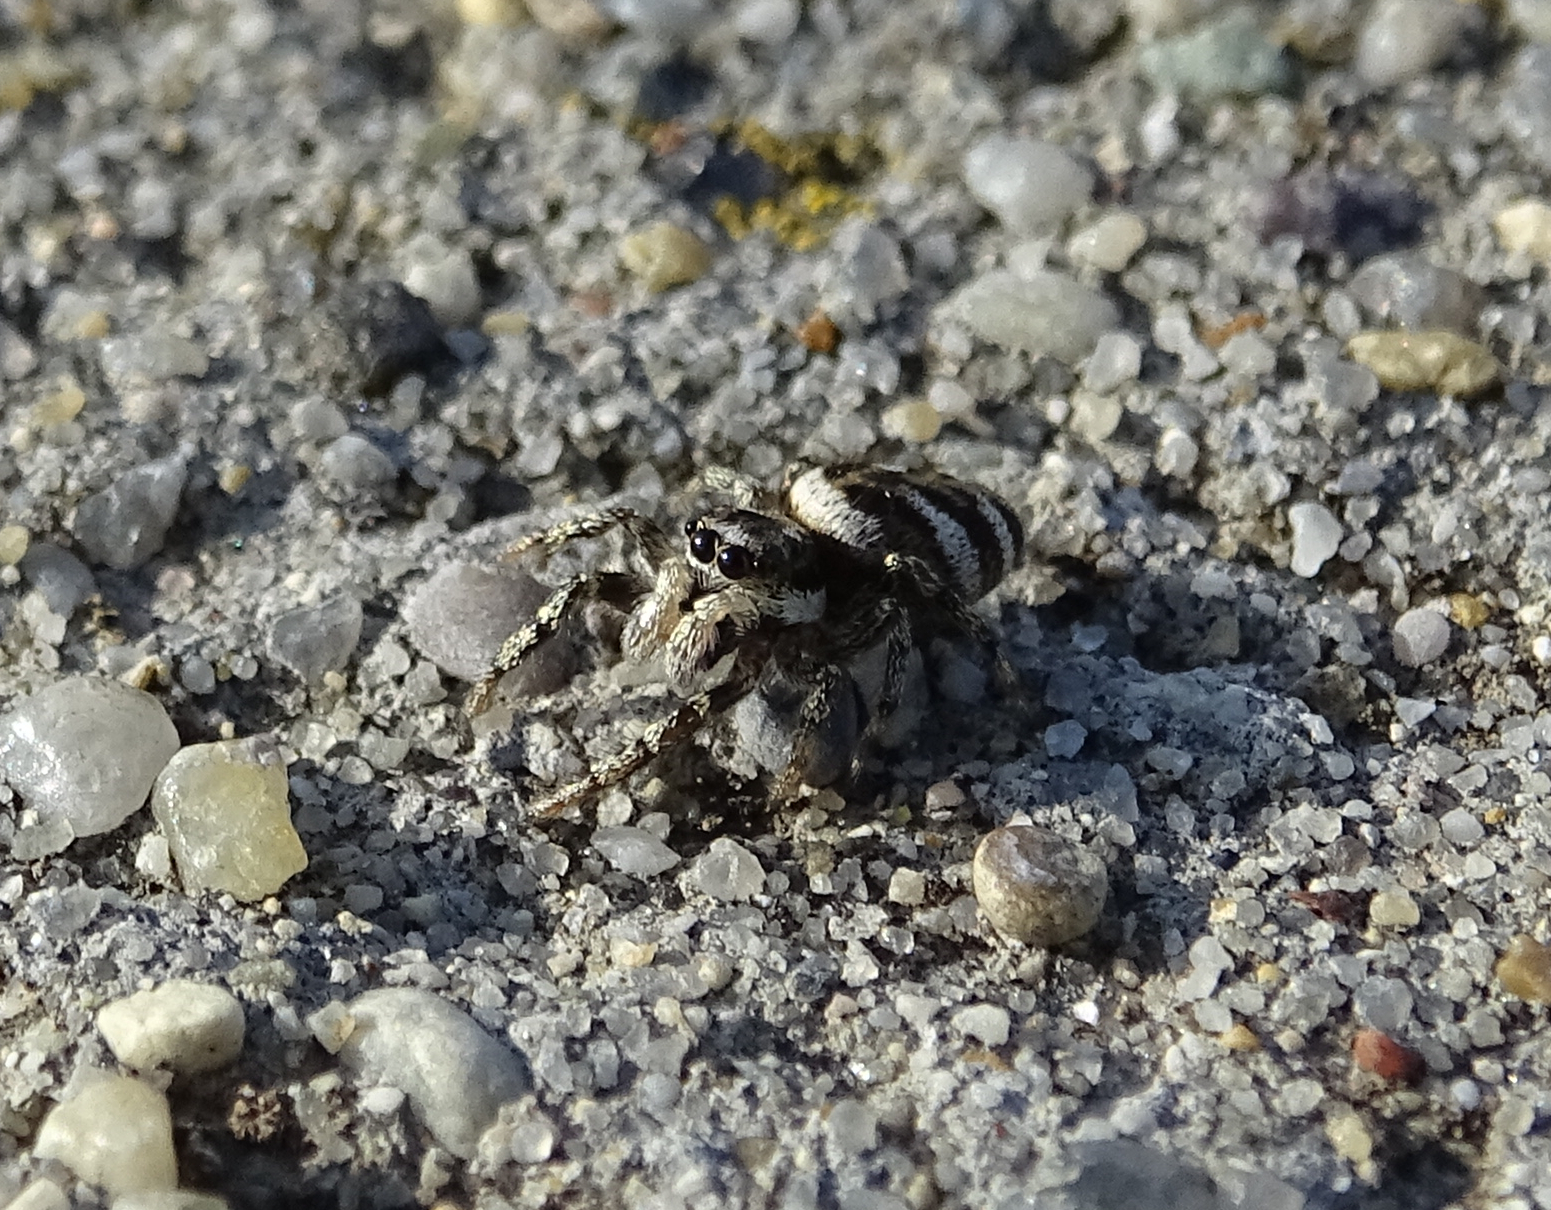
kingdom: Animalia
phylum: Arthropoda
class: Arachnida
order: Araneae
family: Salticidae
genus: Salticus
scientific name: Salticus scenicus
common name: Zebra jumper
